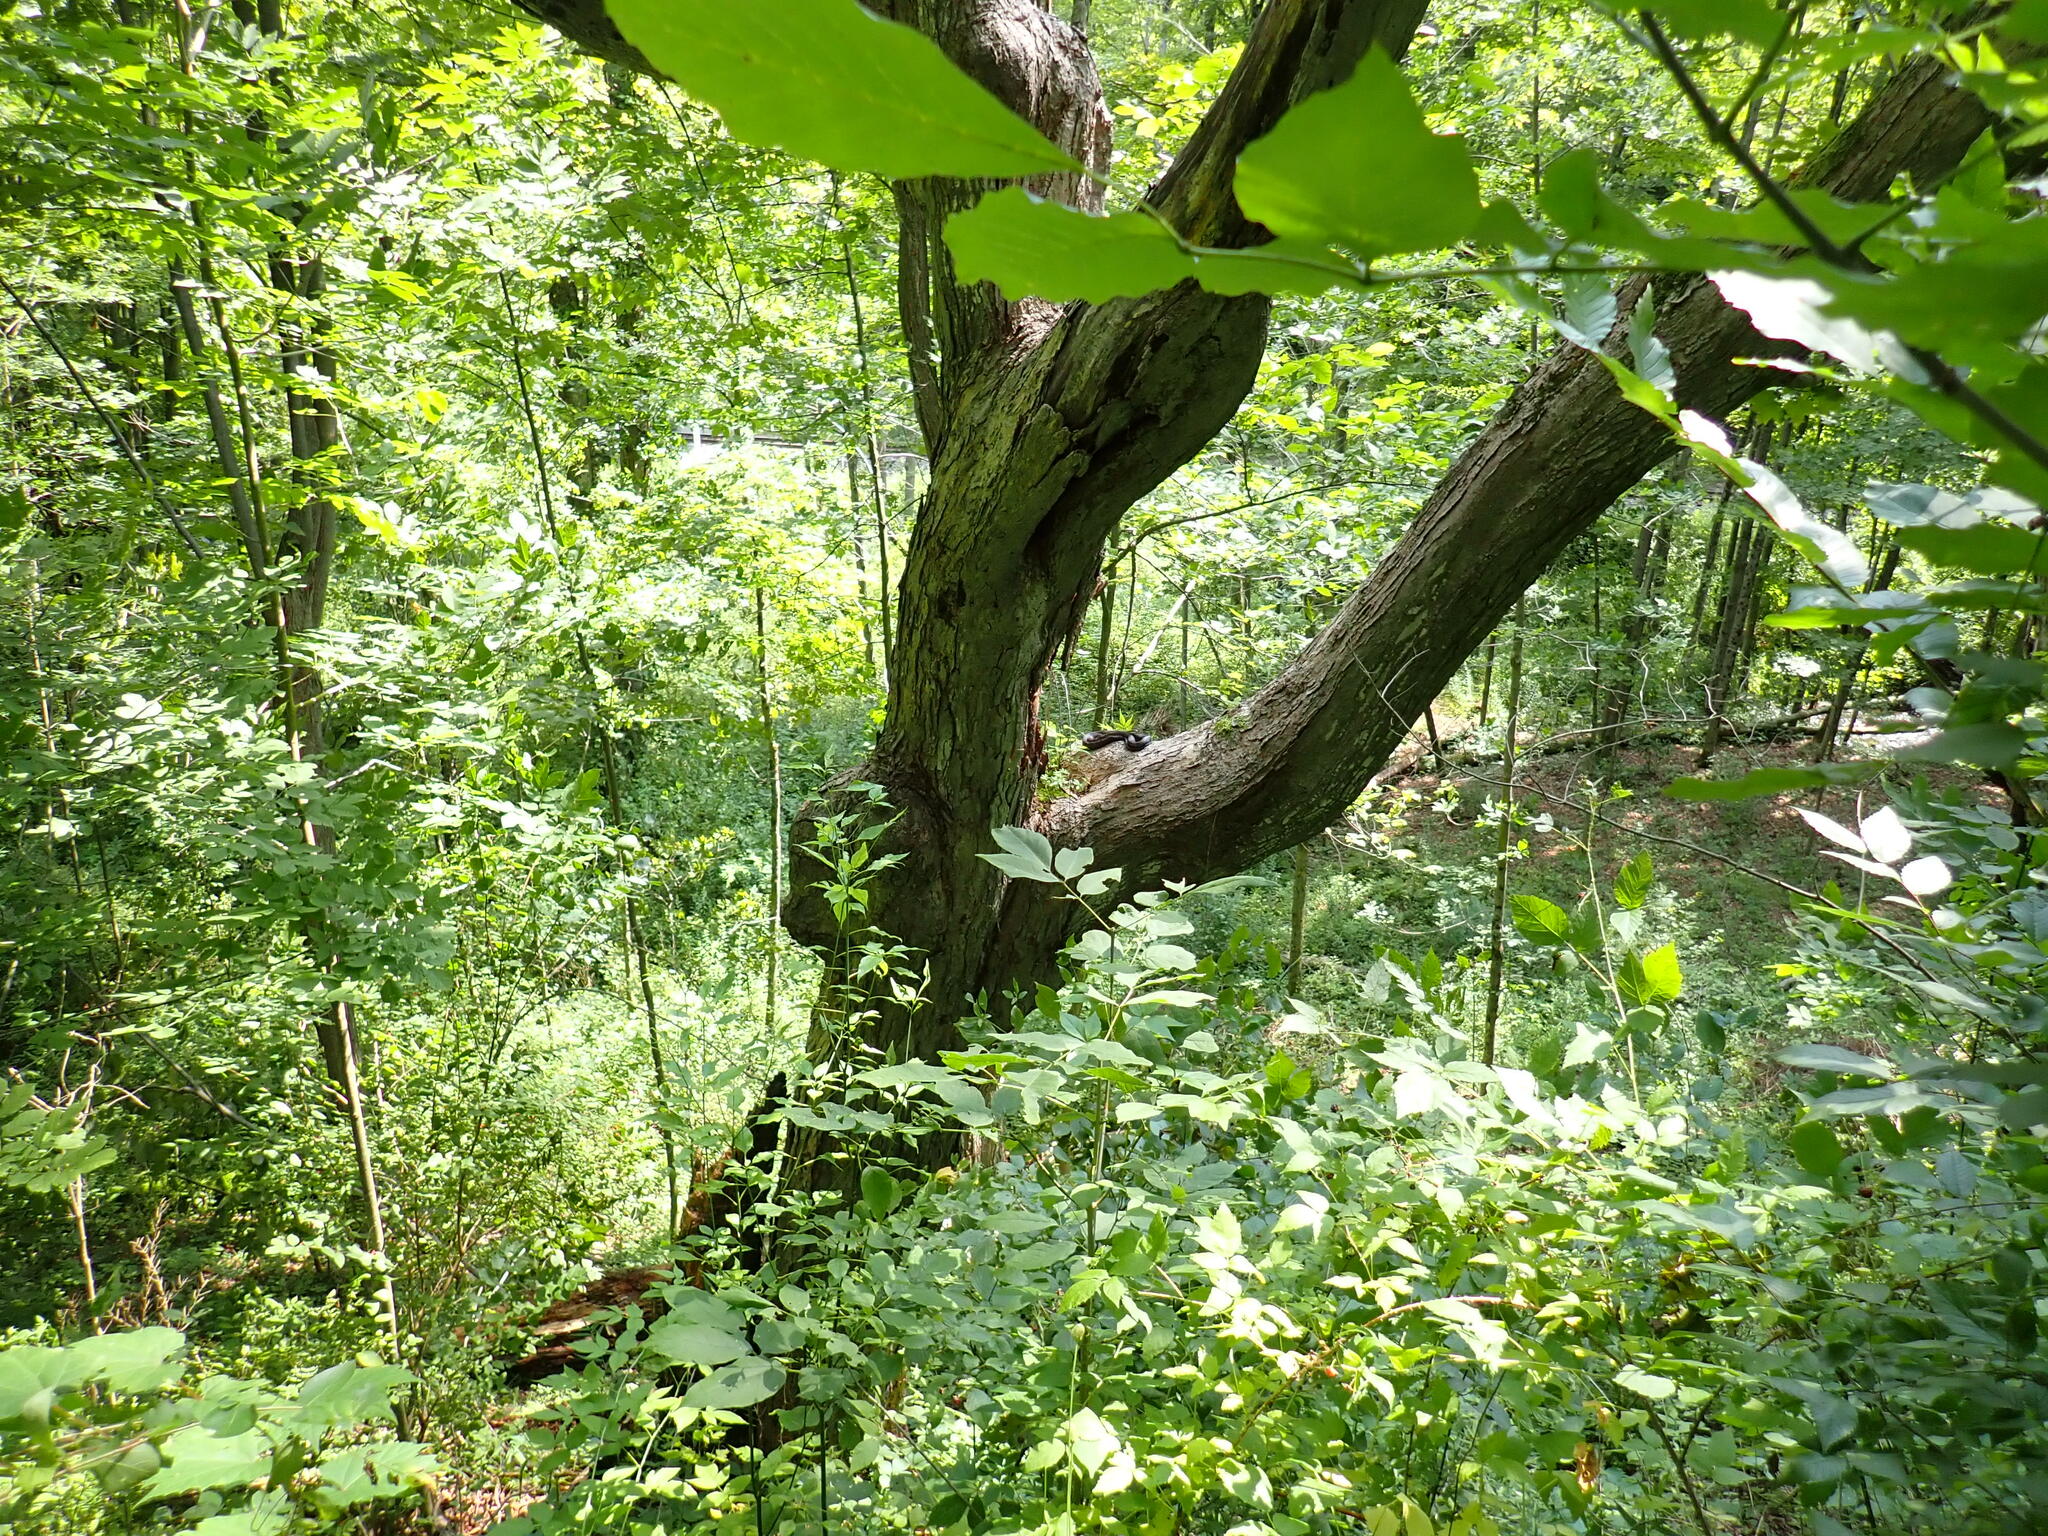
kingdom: Animalia
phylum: Chordata
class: Squamata
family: Colubridae
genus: Pantherophis
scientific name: Pantherophis spiloides
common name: Gray rat snake
